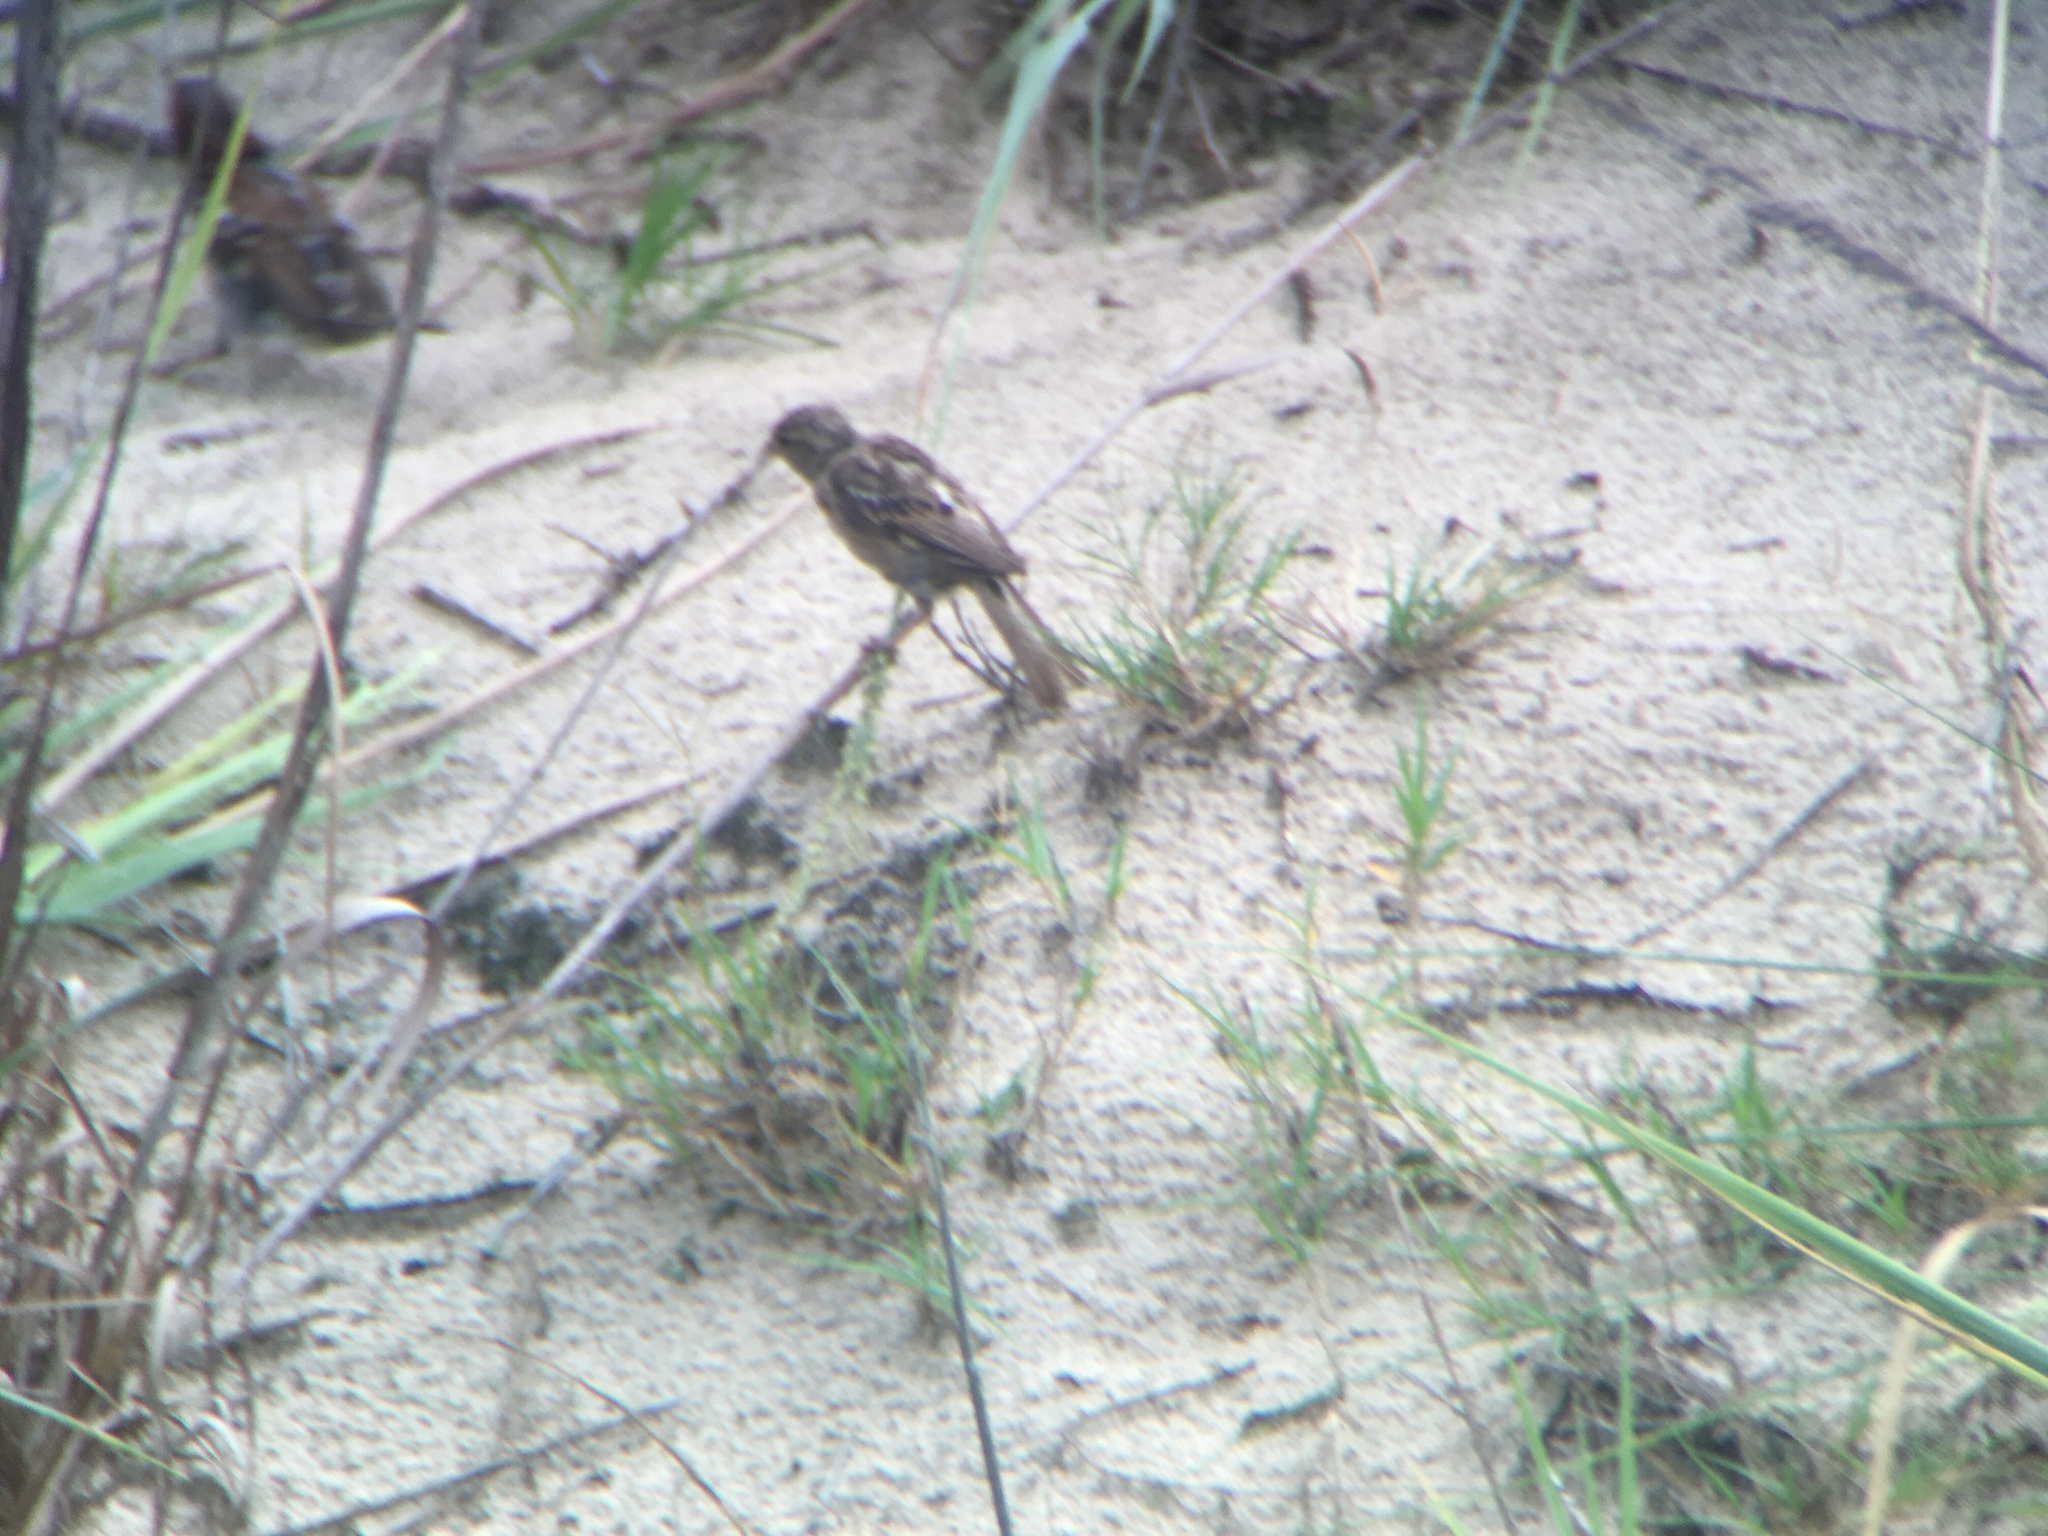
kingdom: Animalia
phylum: Chordata
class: Aves
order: Passeriformes
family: Passeridae
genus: Passer
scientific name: Passer domesticus
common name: House sparrow
